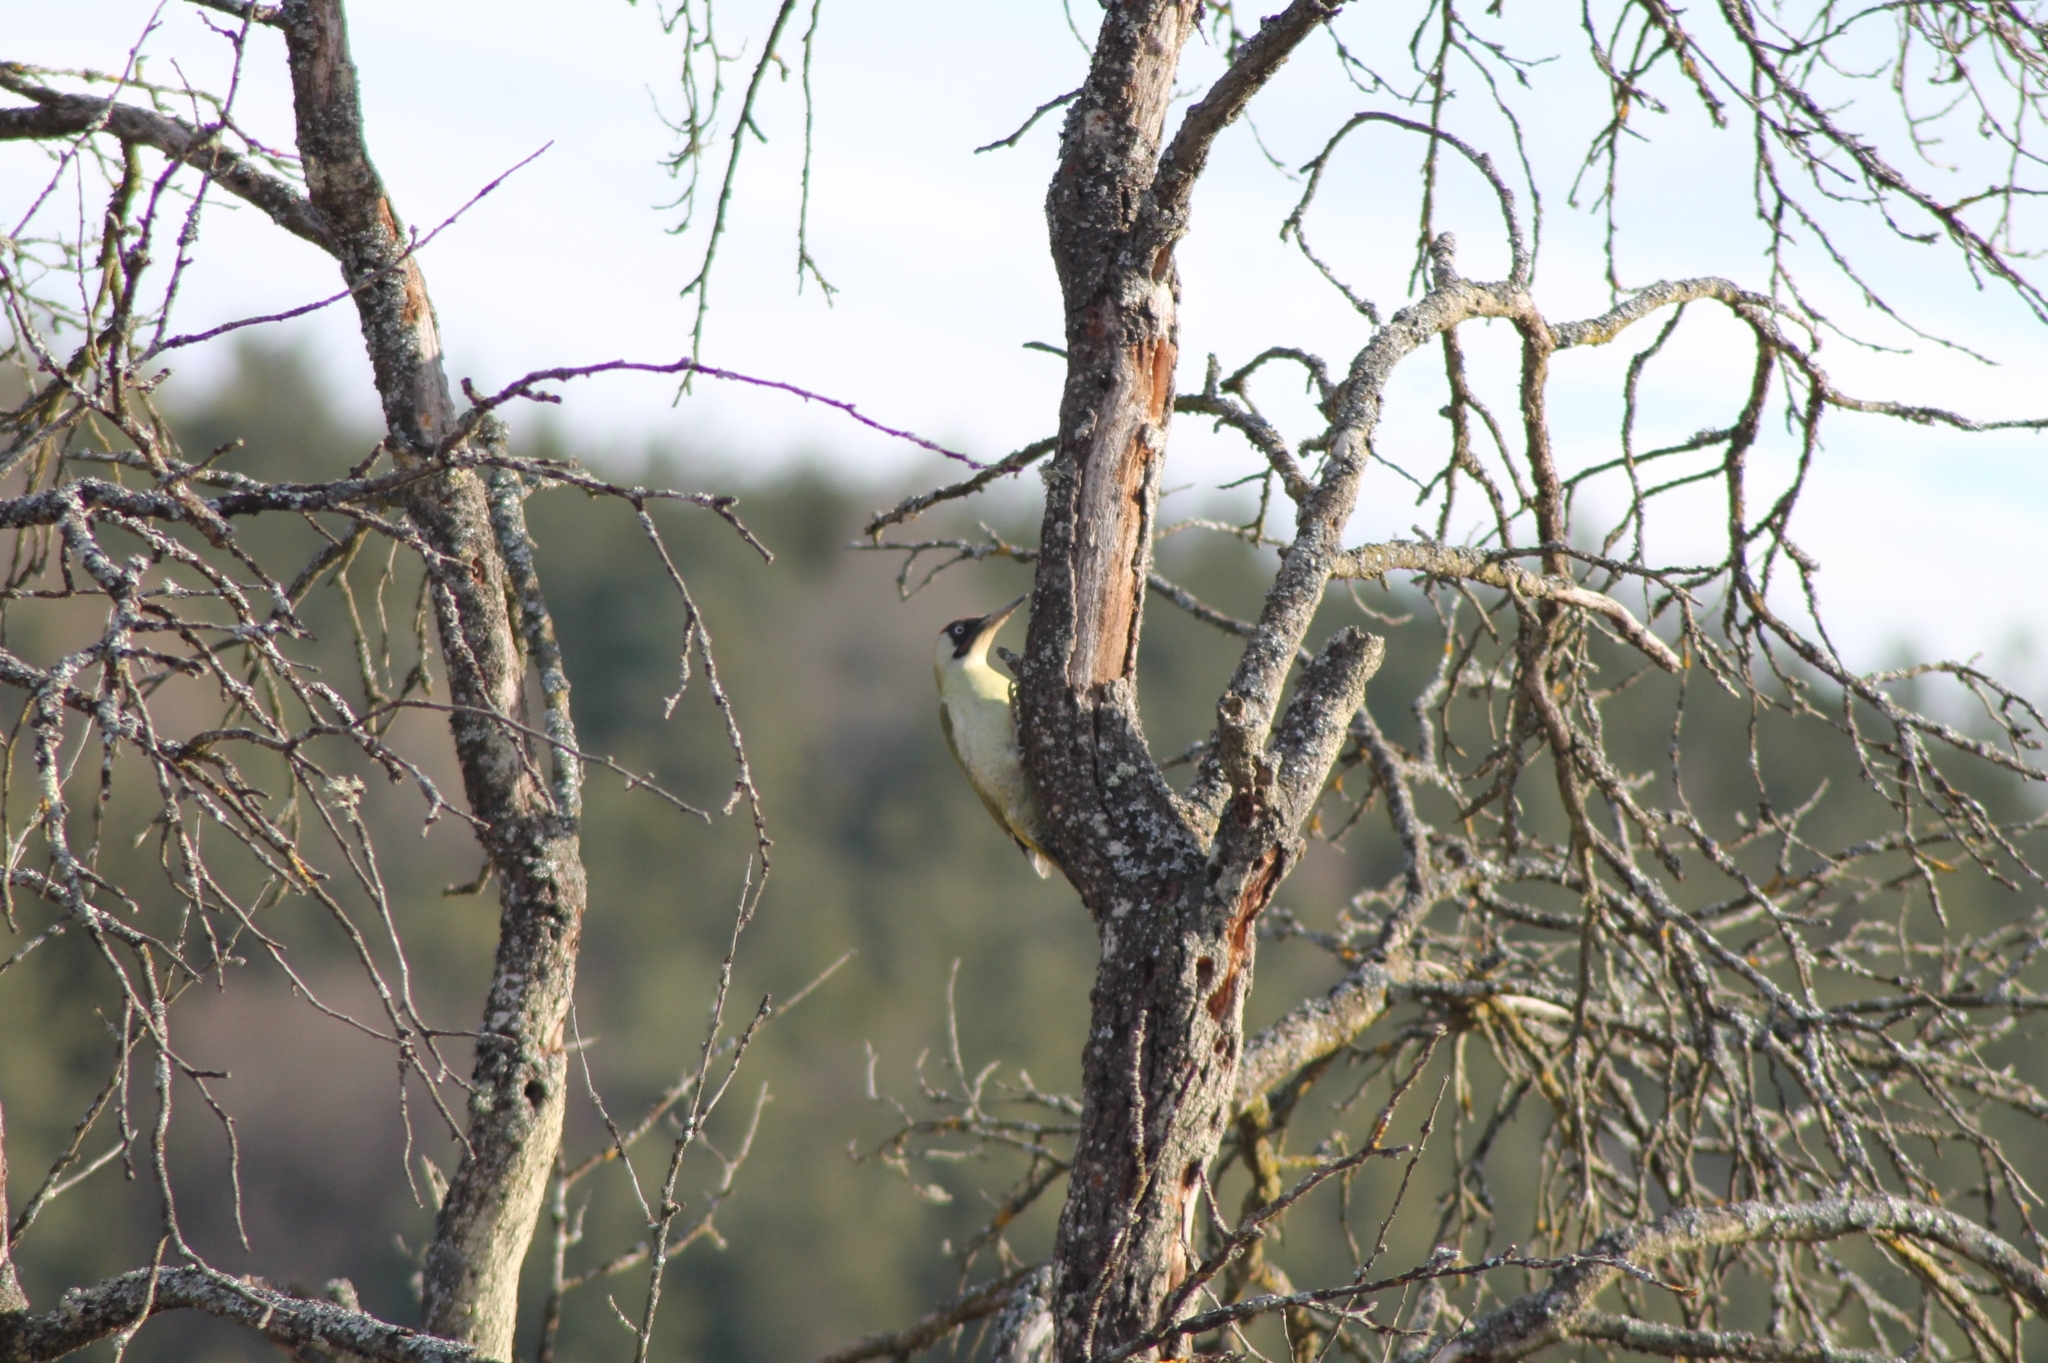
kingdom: Animalia
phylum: Chordata
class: Aves
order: Piciformes
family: Picidae
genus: Picus
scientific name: Picus viridis
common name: European green woodpecker
